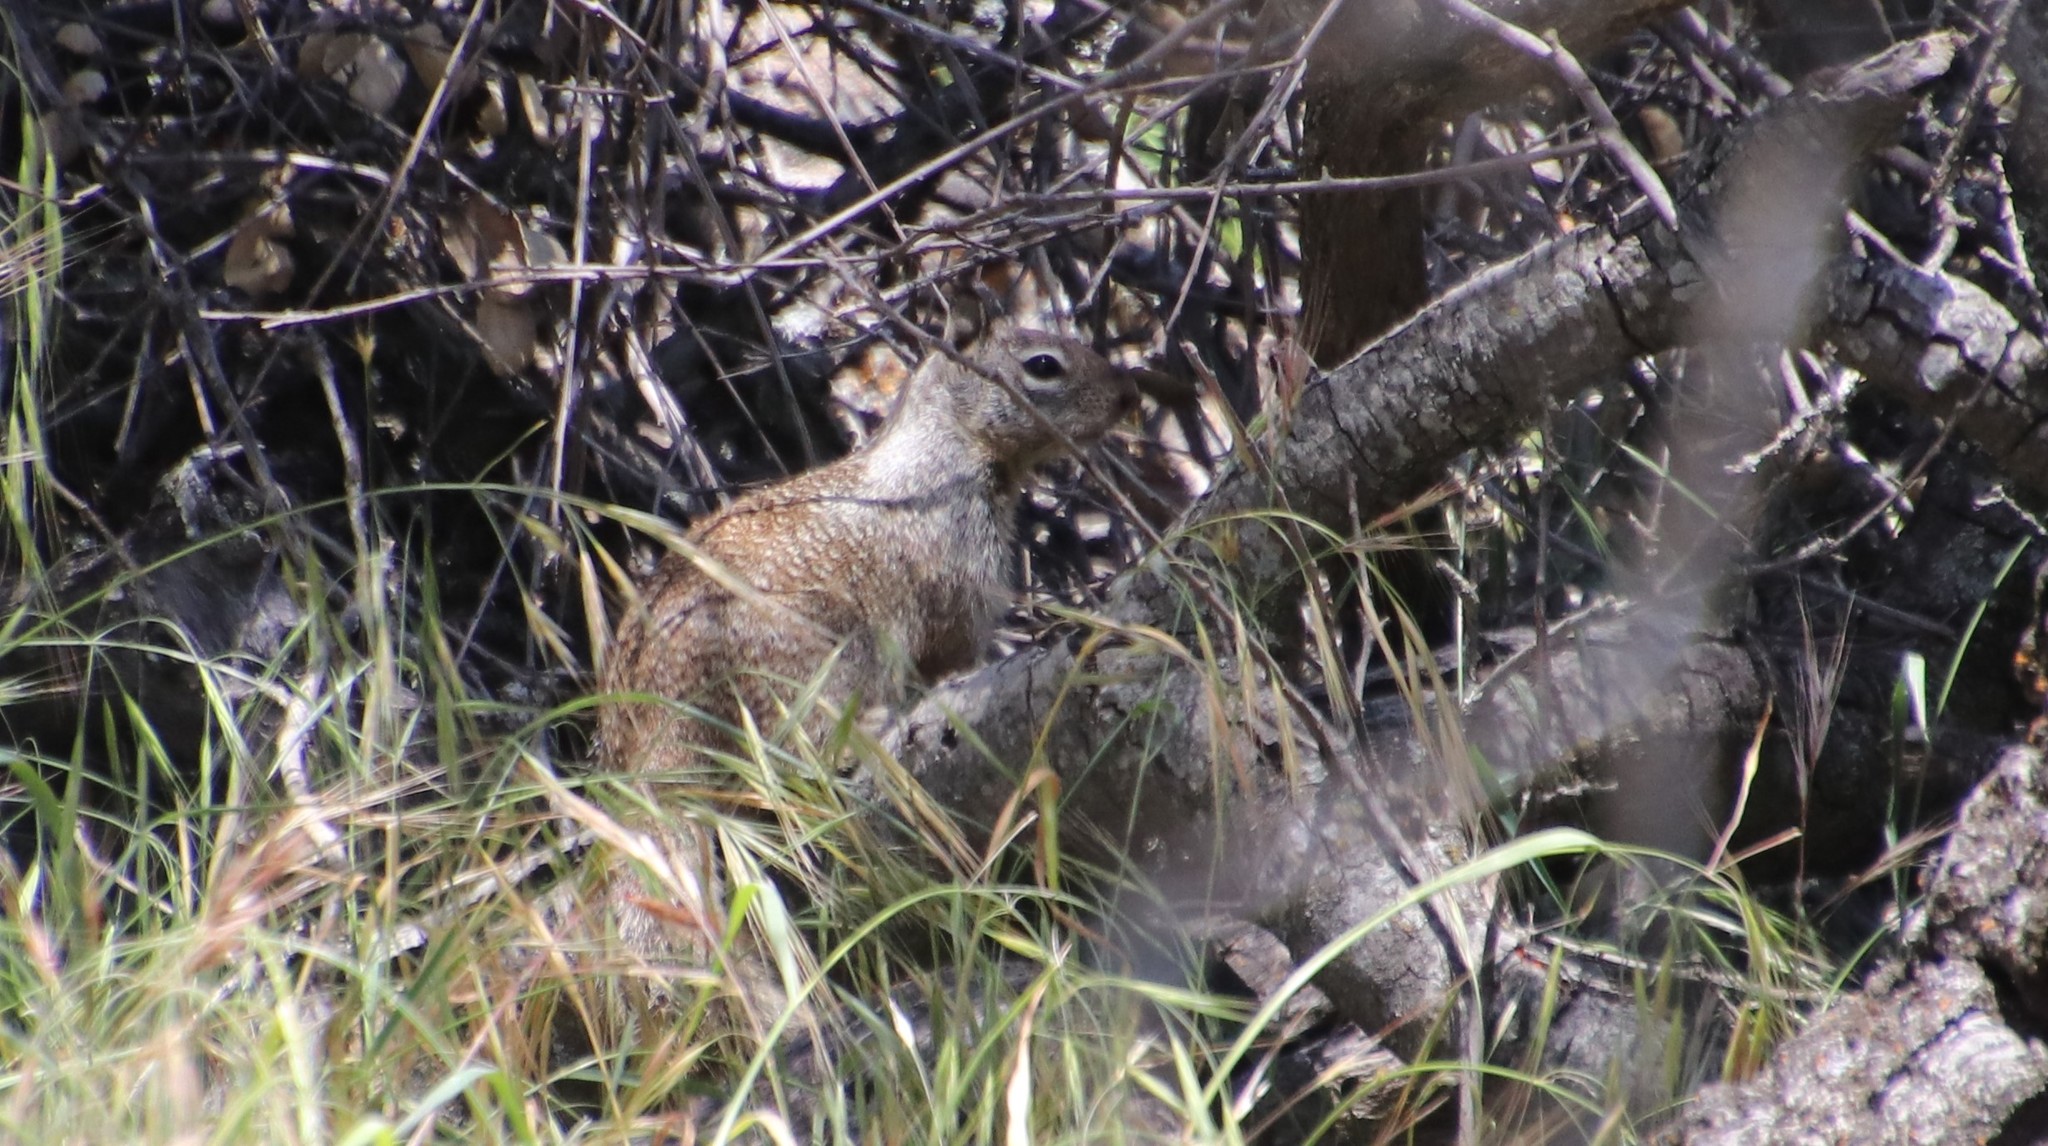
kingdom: Animalia
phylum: Chordata
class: Mammalia
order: Rodentia
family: Sciuridae
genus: Otospermophilus
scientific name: Otospermophilus beecheyi
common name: California ground squirrel
